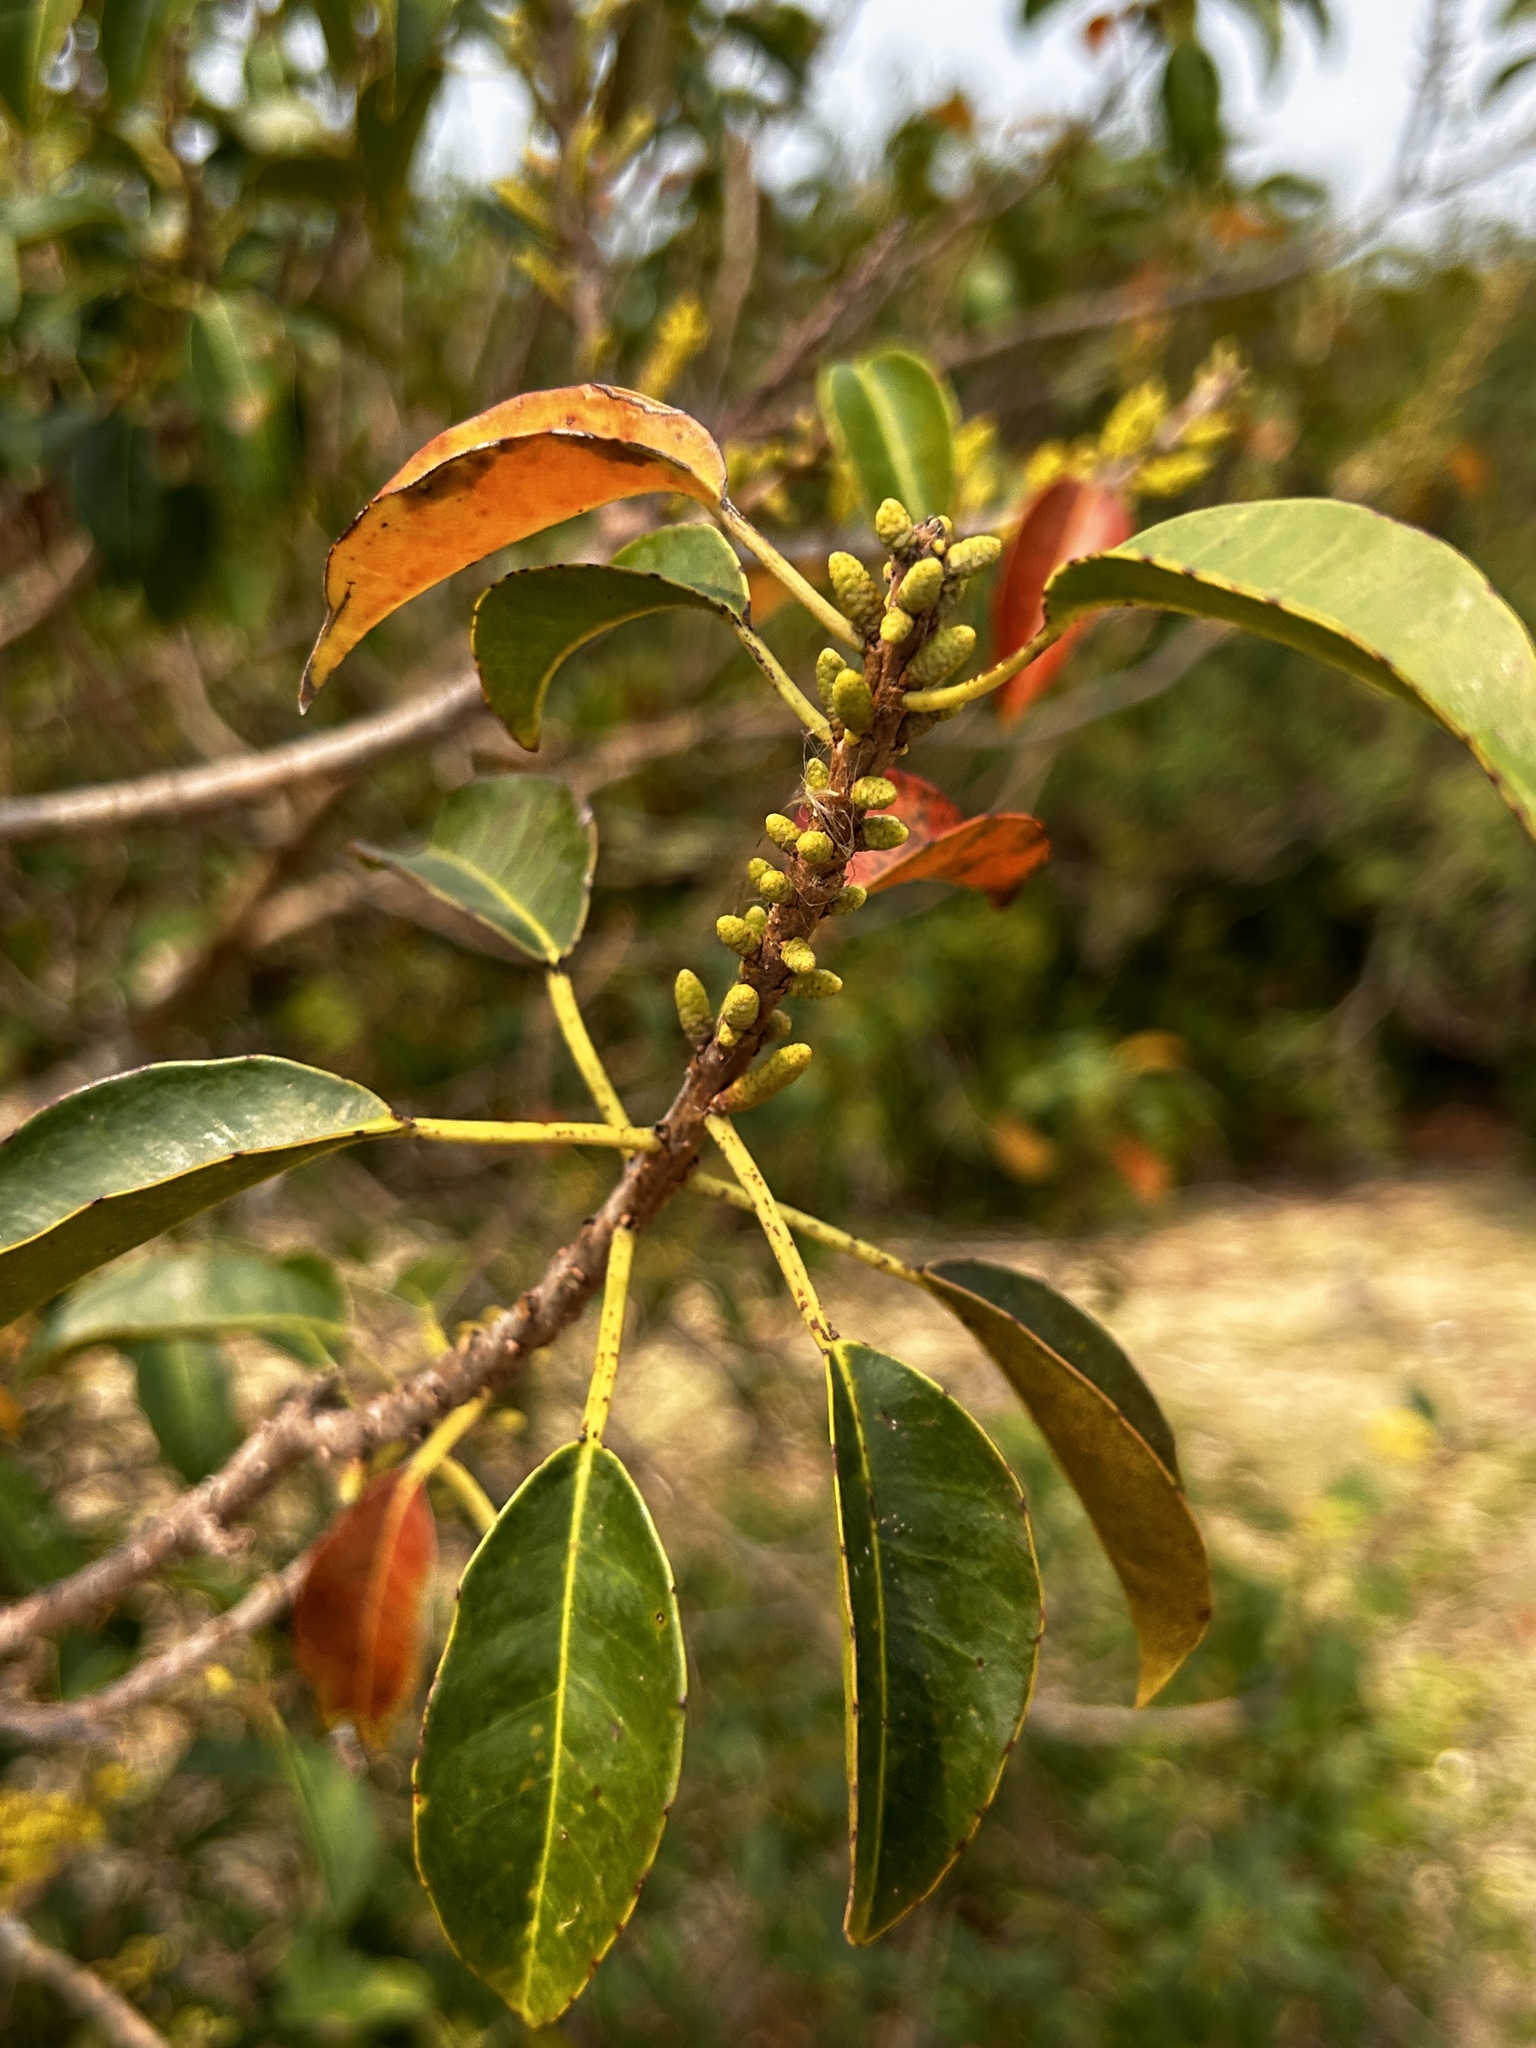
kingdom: Plantae
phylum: Tracheophyta
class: Magnoliopsida
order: Malpighiales
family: Euphorbiaceae
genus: Excoecaria
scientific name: Excoecaria agallocha
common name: River poisontree
